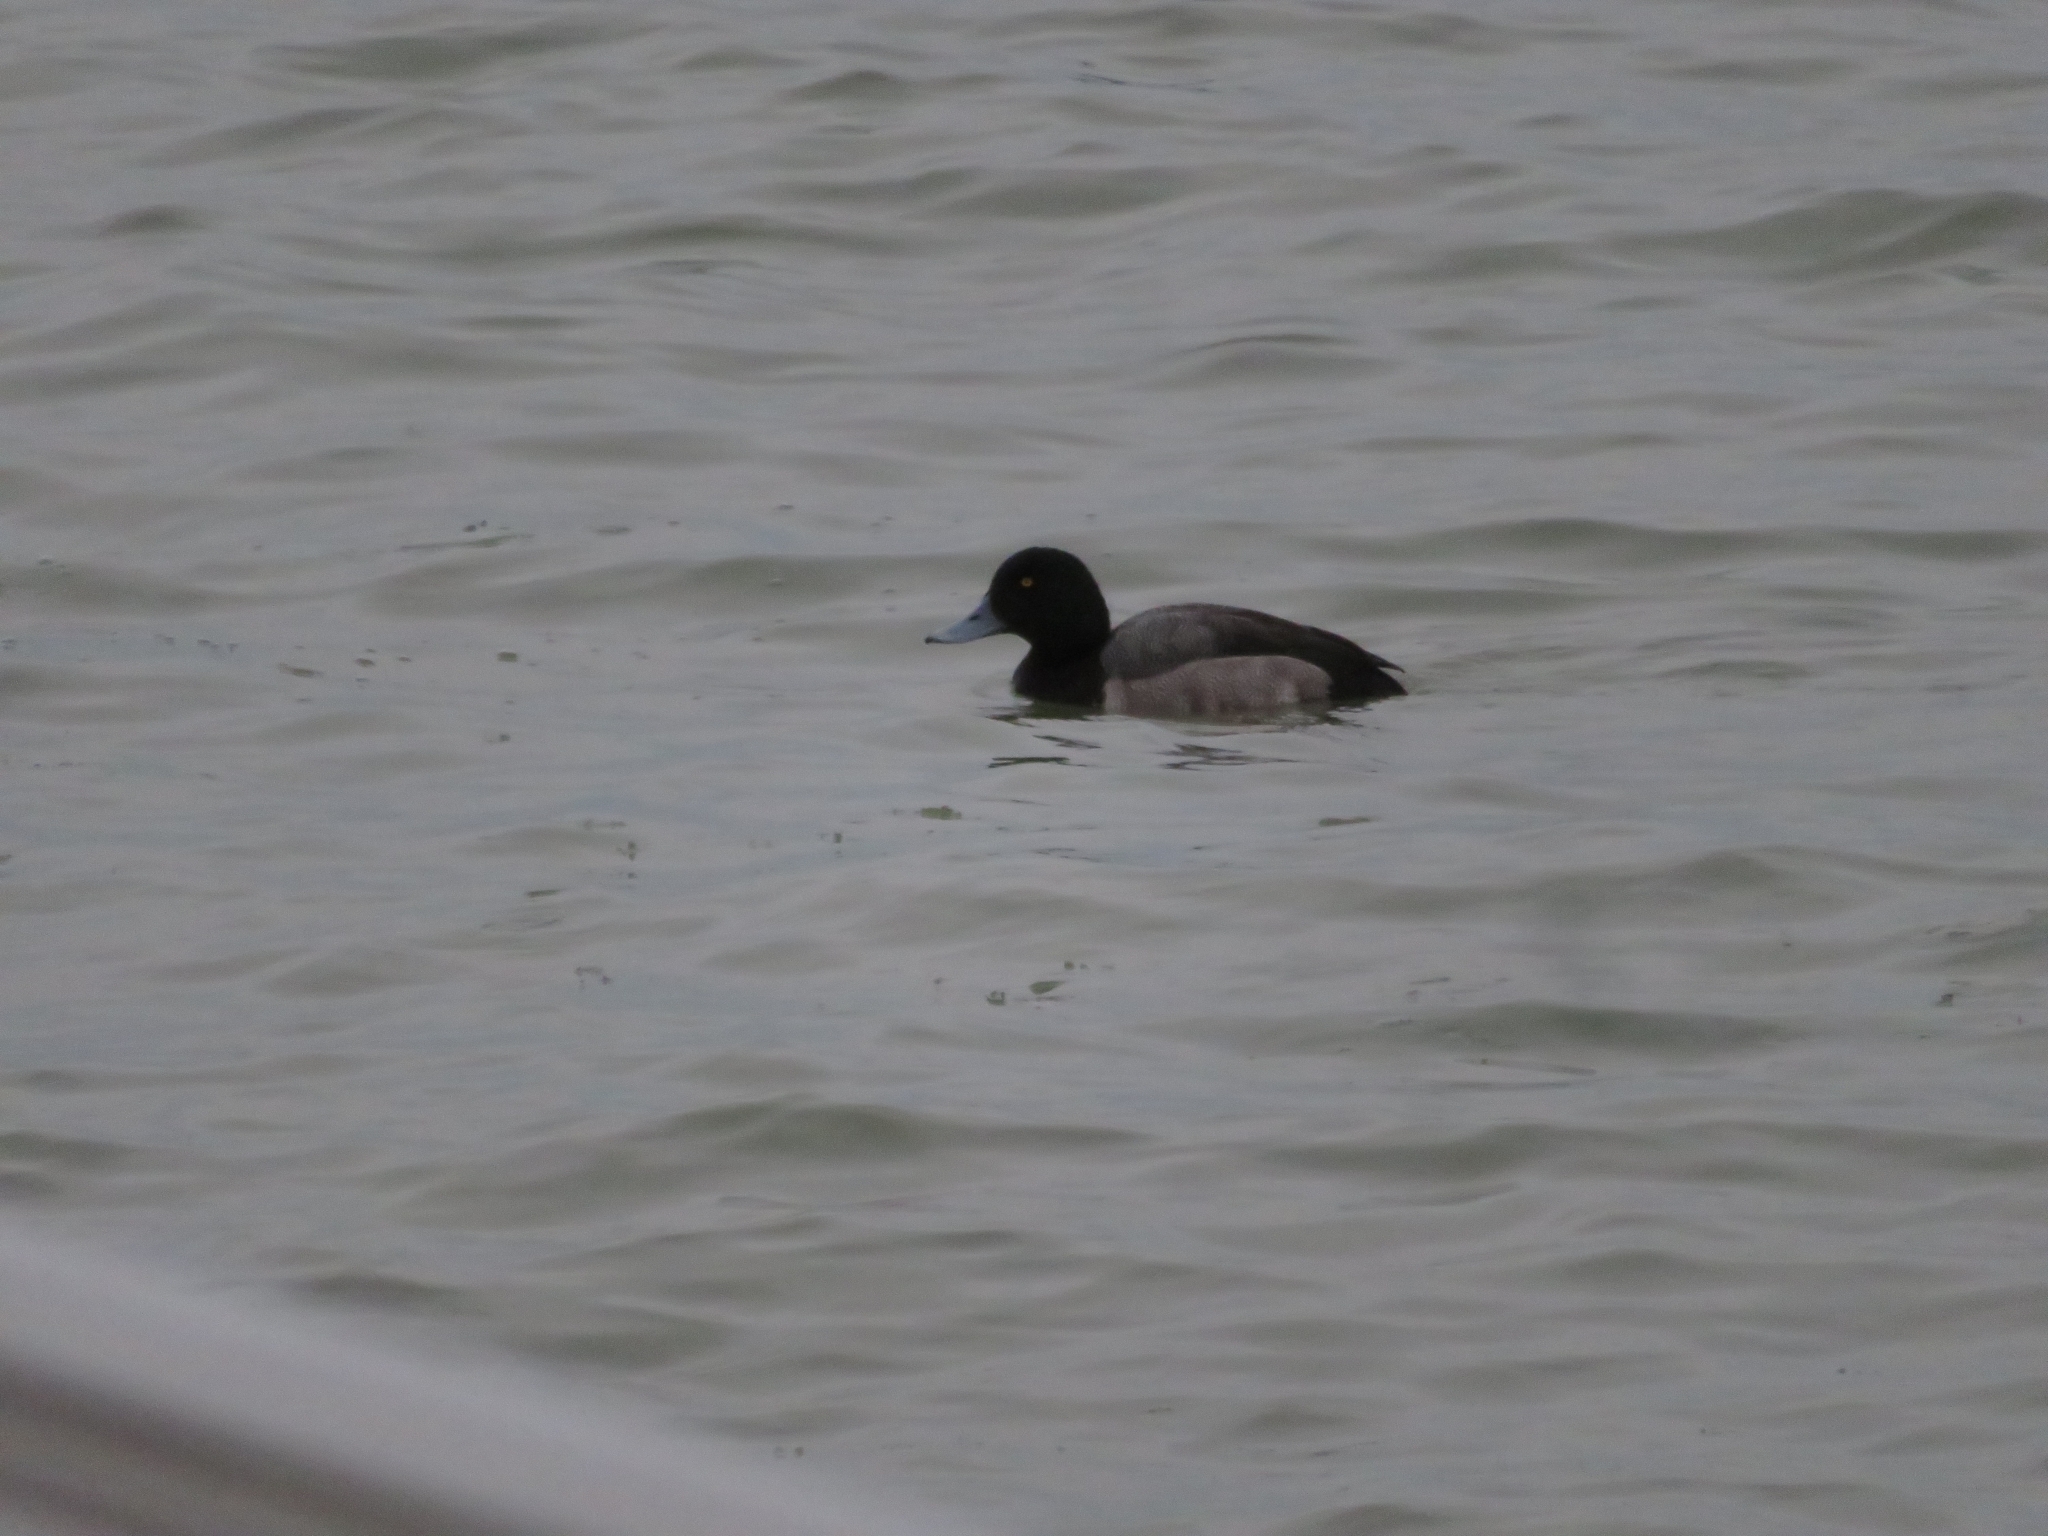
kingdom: Animalia
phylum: Chordata
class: Aves
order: Anseriformes
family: Anatidae
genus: Aythya
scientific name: Aythya marila
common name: Greater scaup
